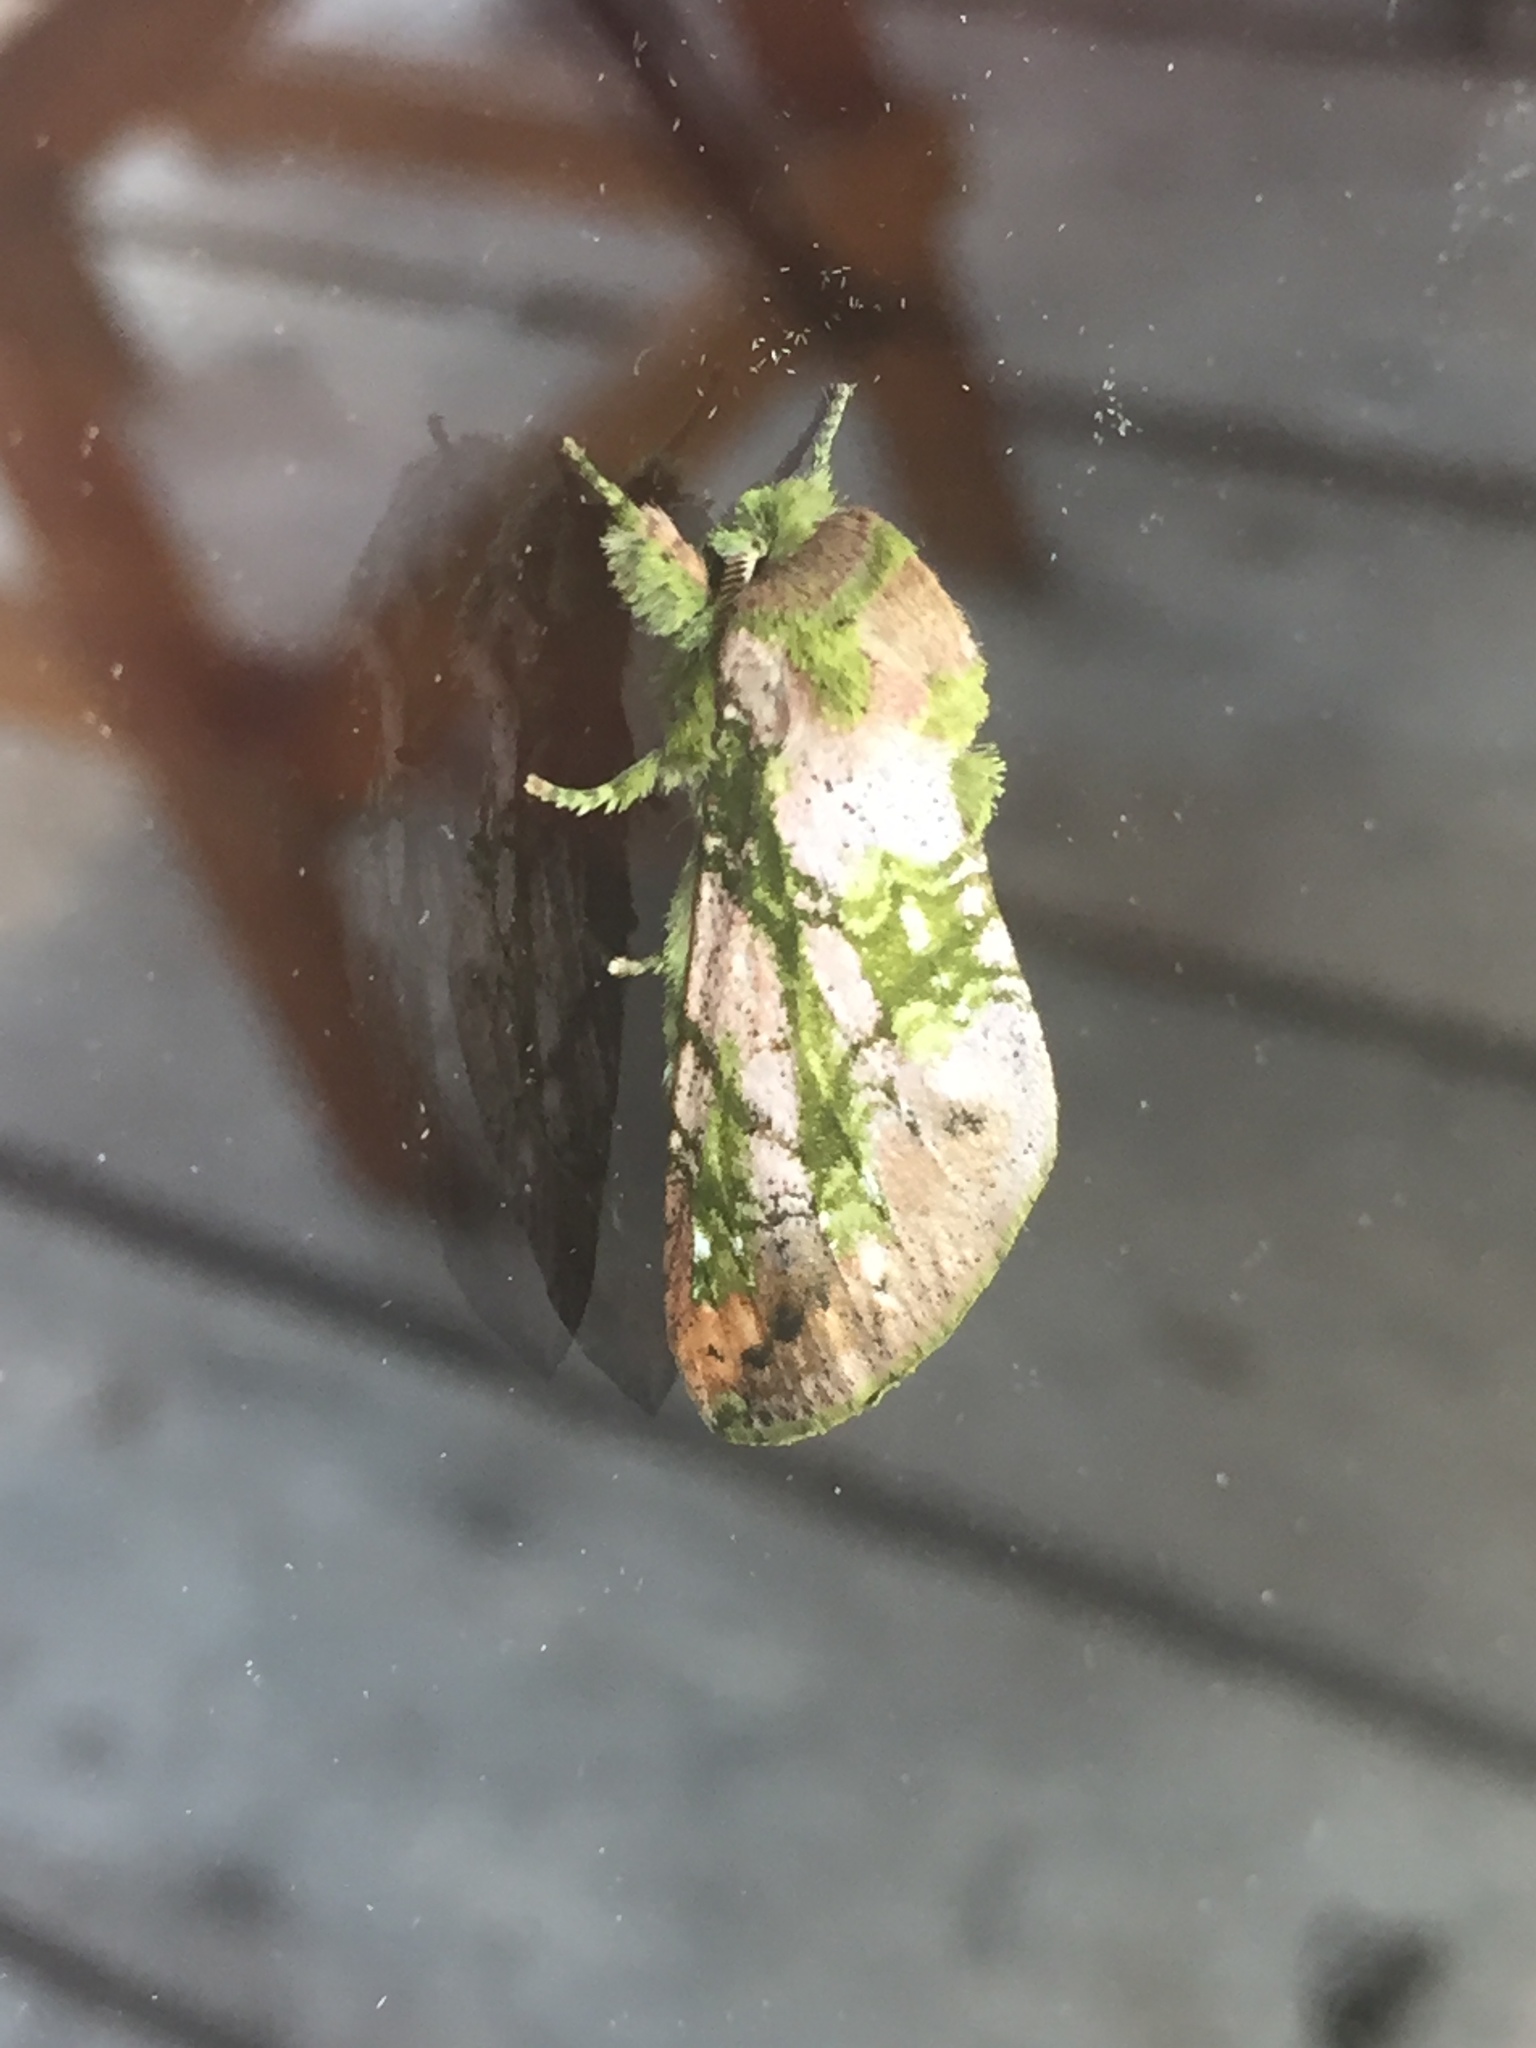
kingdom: Animalia
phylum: Arthropoda
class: Insecta
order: Lepidoptera
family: Notodontidae
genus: Psilacron
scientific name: Psilacron luteovirens
